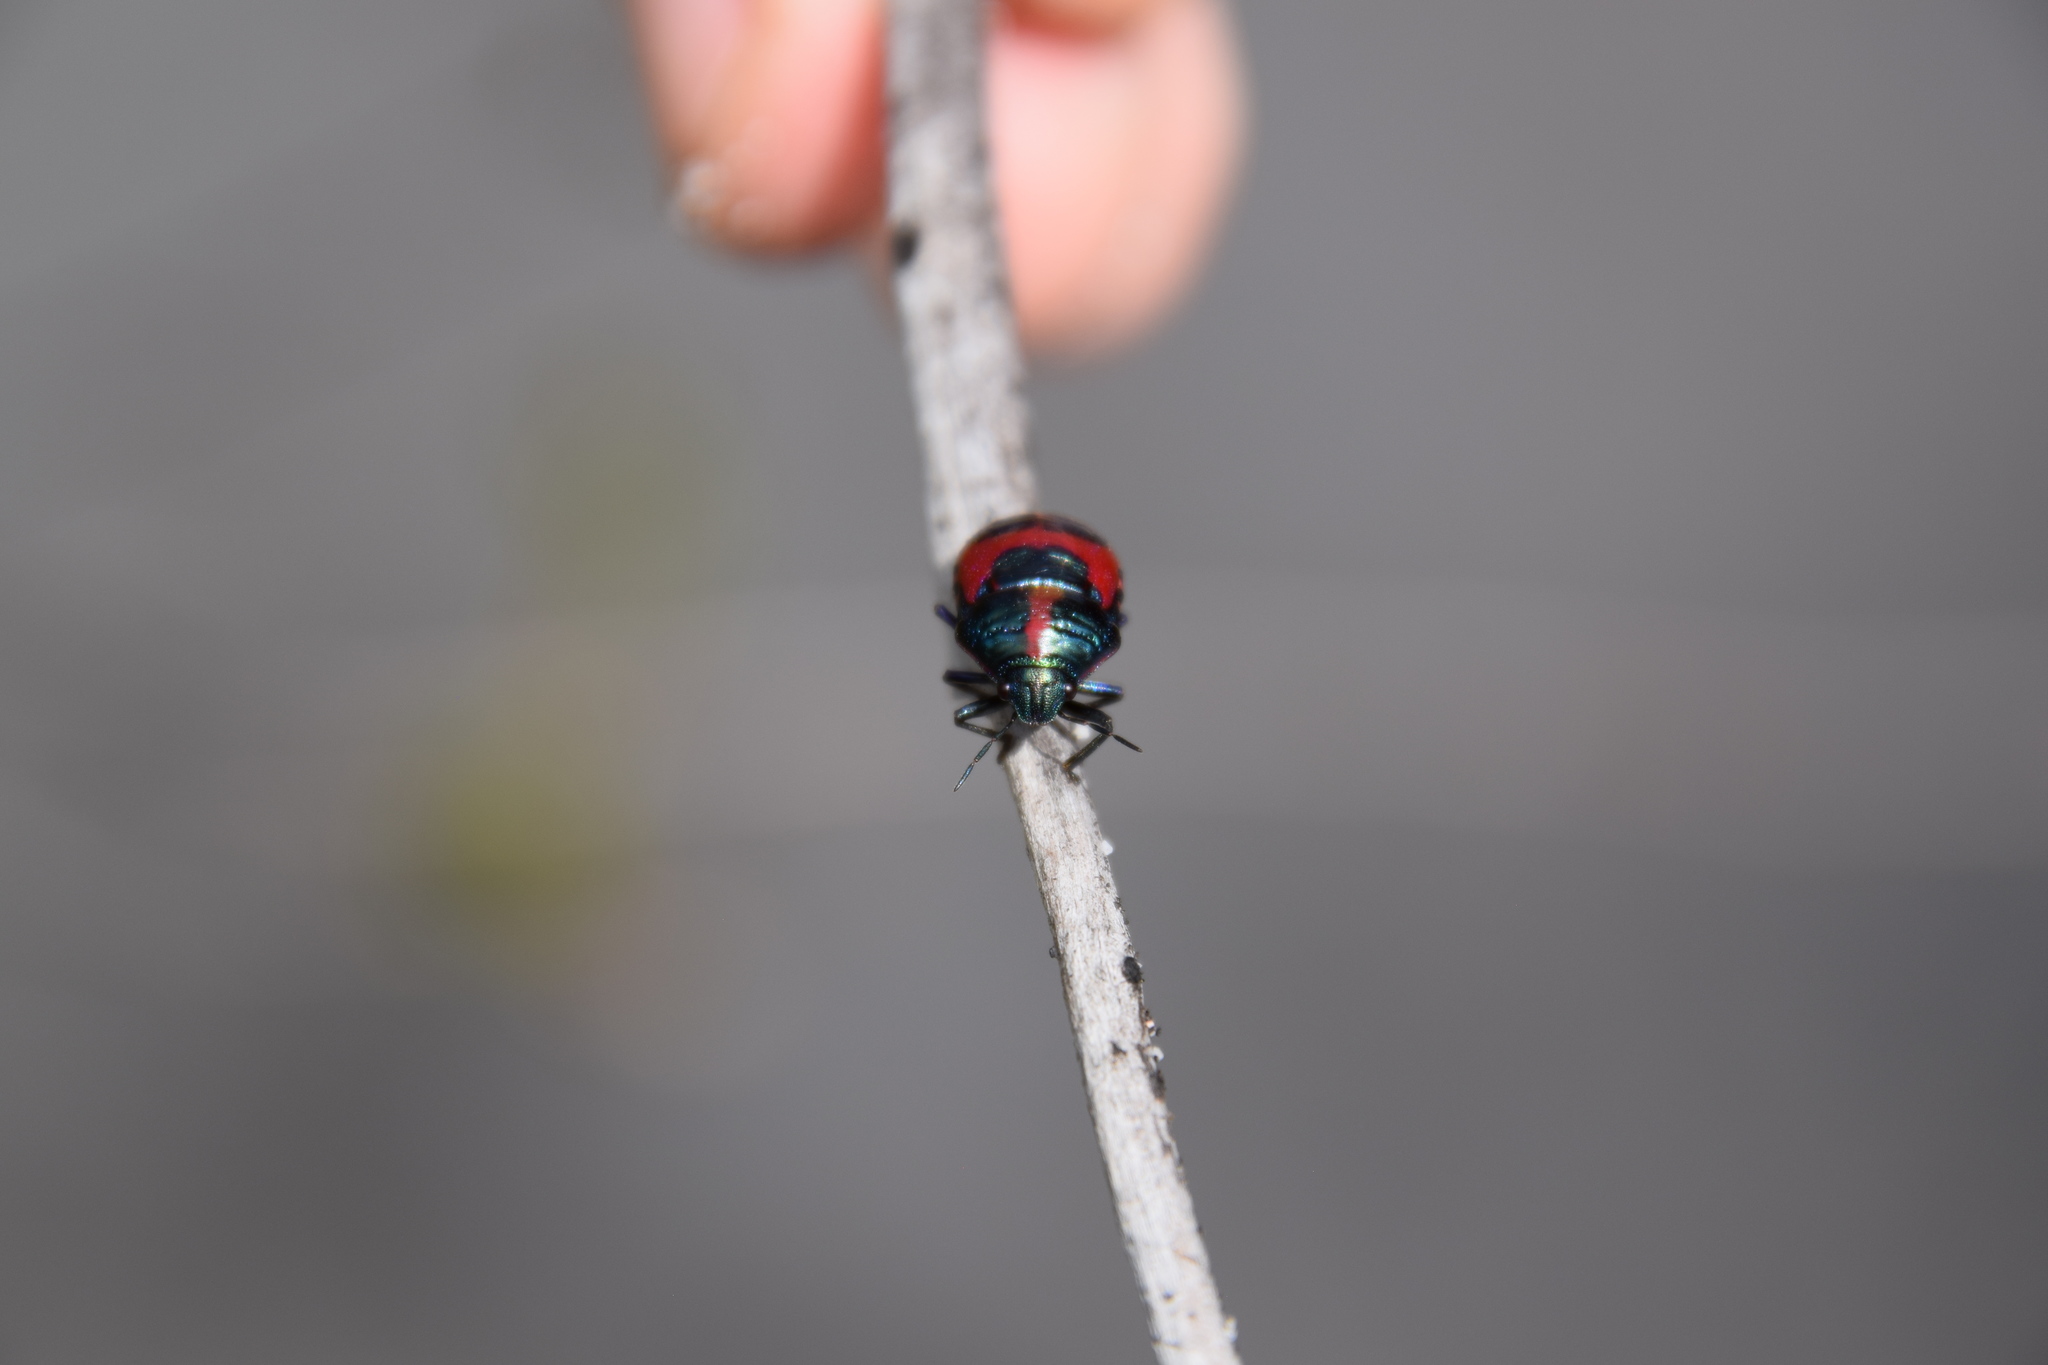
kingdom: Animalia
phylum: Arthropoda
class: Insecta
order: Hemiptera
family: Scutelleridae
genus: Choerocoris
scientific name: Choerocoris paganus
